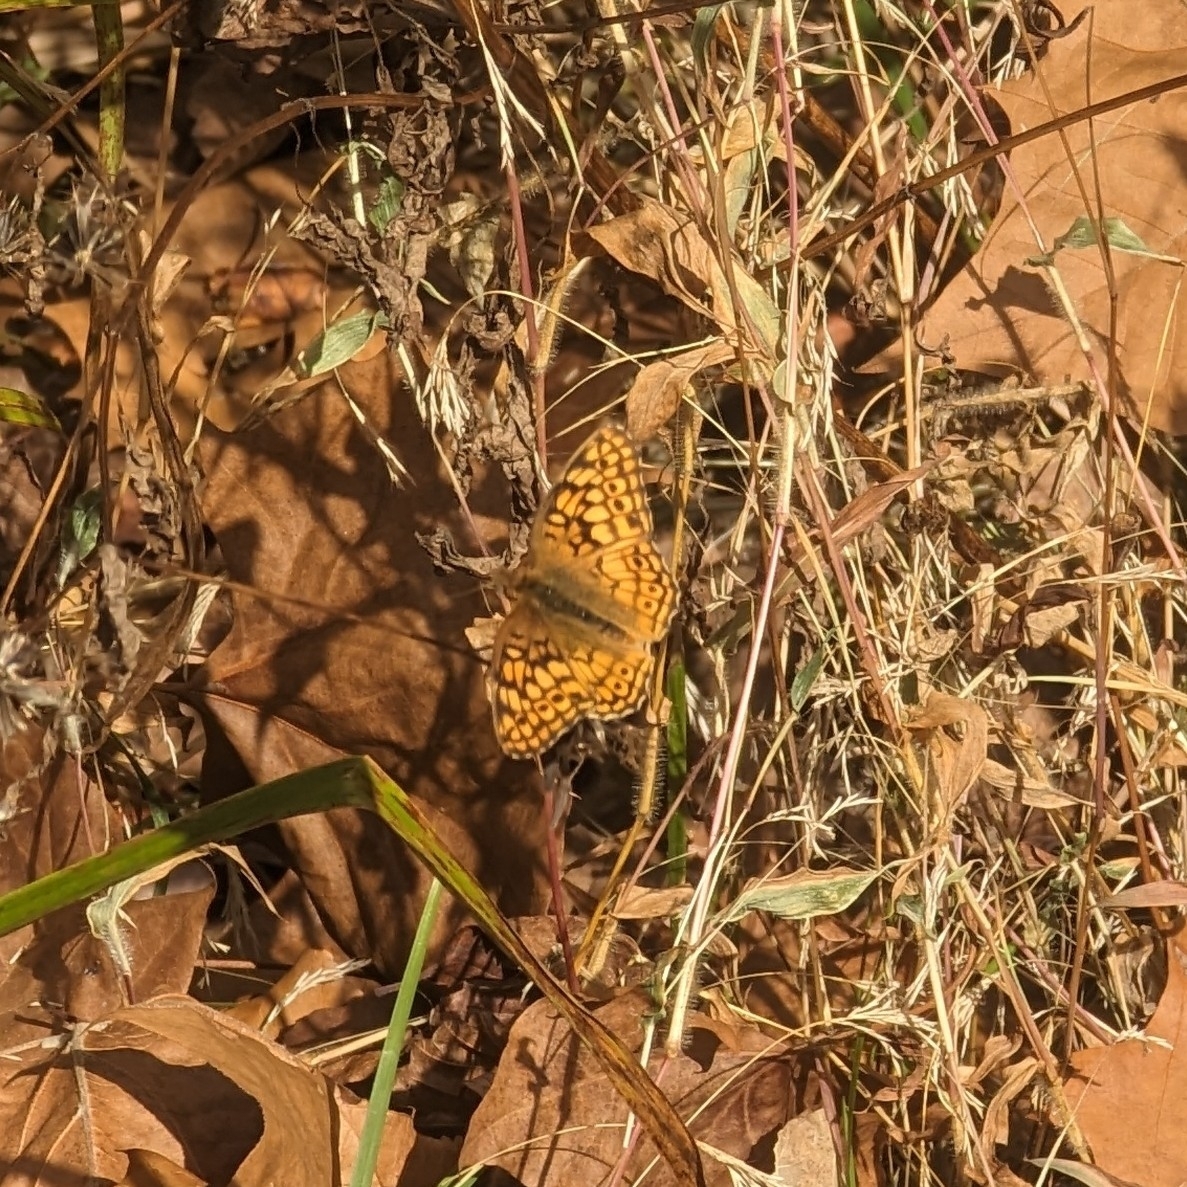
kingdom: Animalia
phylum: Arthropoda
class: Insecta
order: Lepidoptera
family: Nymphalidae
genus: Euptoieta
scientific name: Euptoieta claudia
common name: Variegated fritillary
